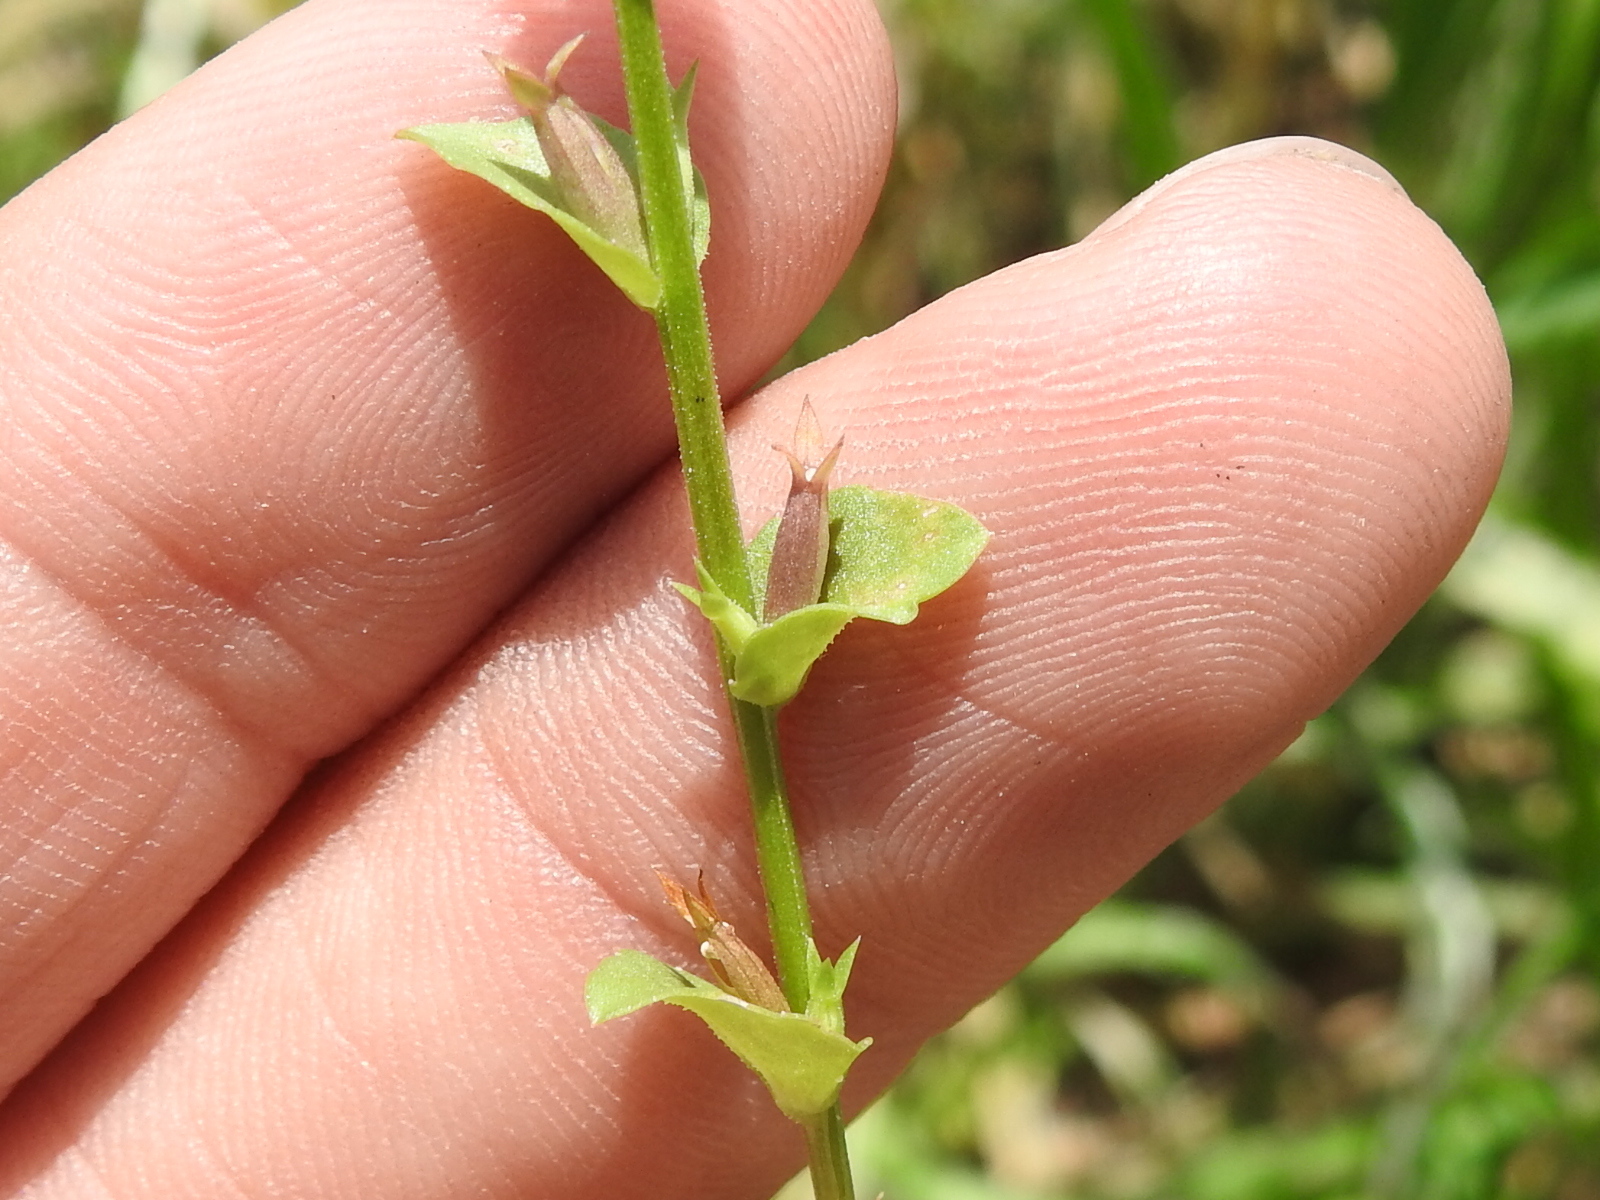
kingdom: Plantae
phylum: Tracheophyta
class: Magnoliopsida
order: Asterales
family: Campanulaceae
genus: Triodanis
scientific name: Triodanis biflora
